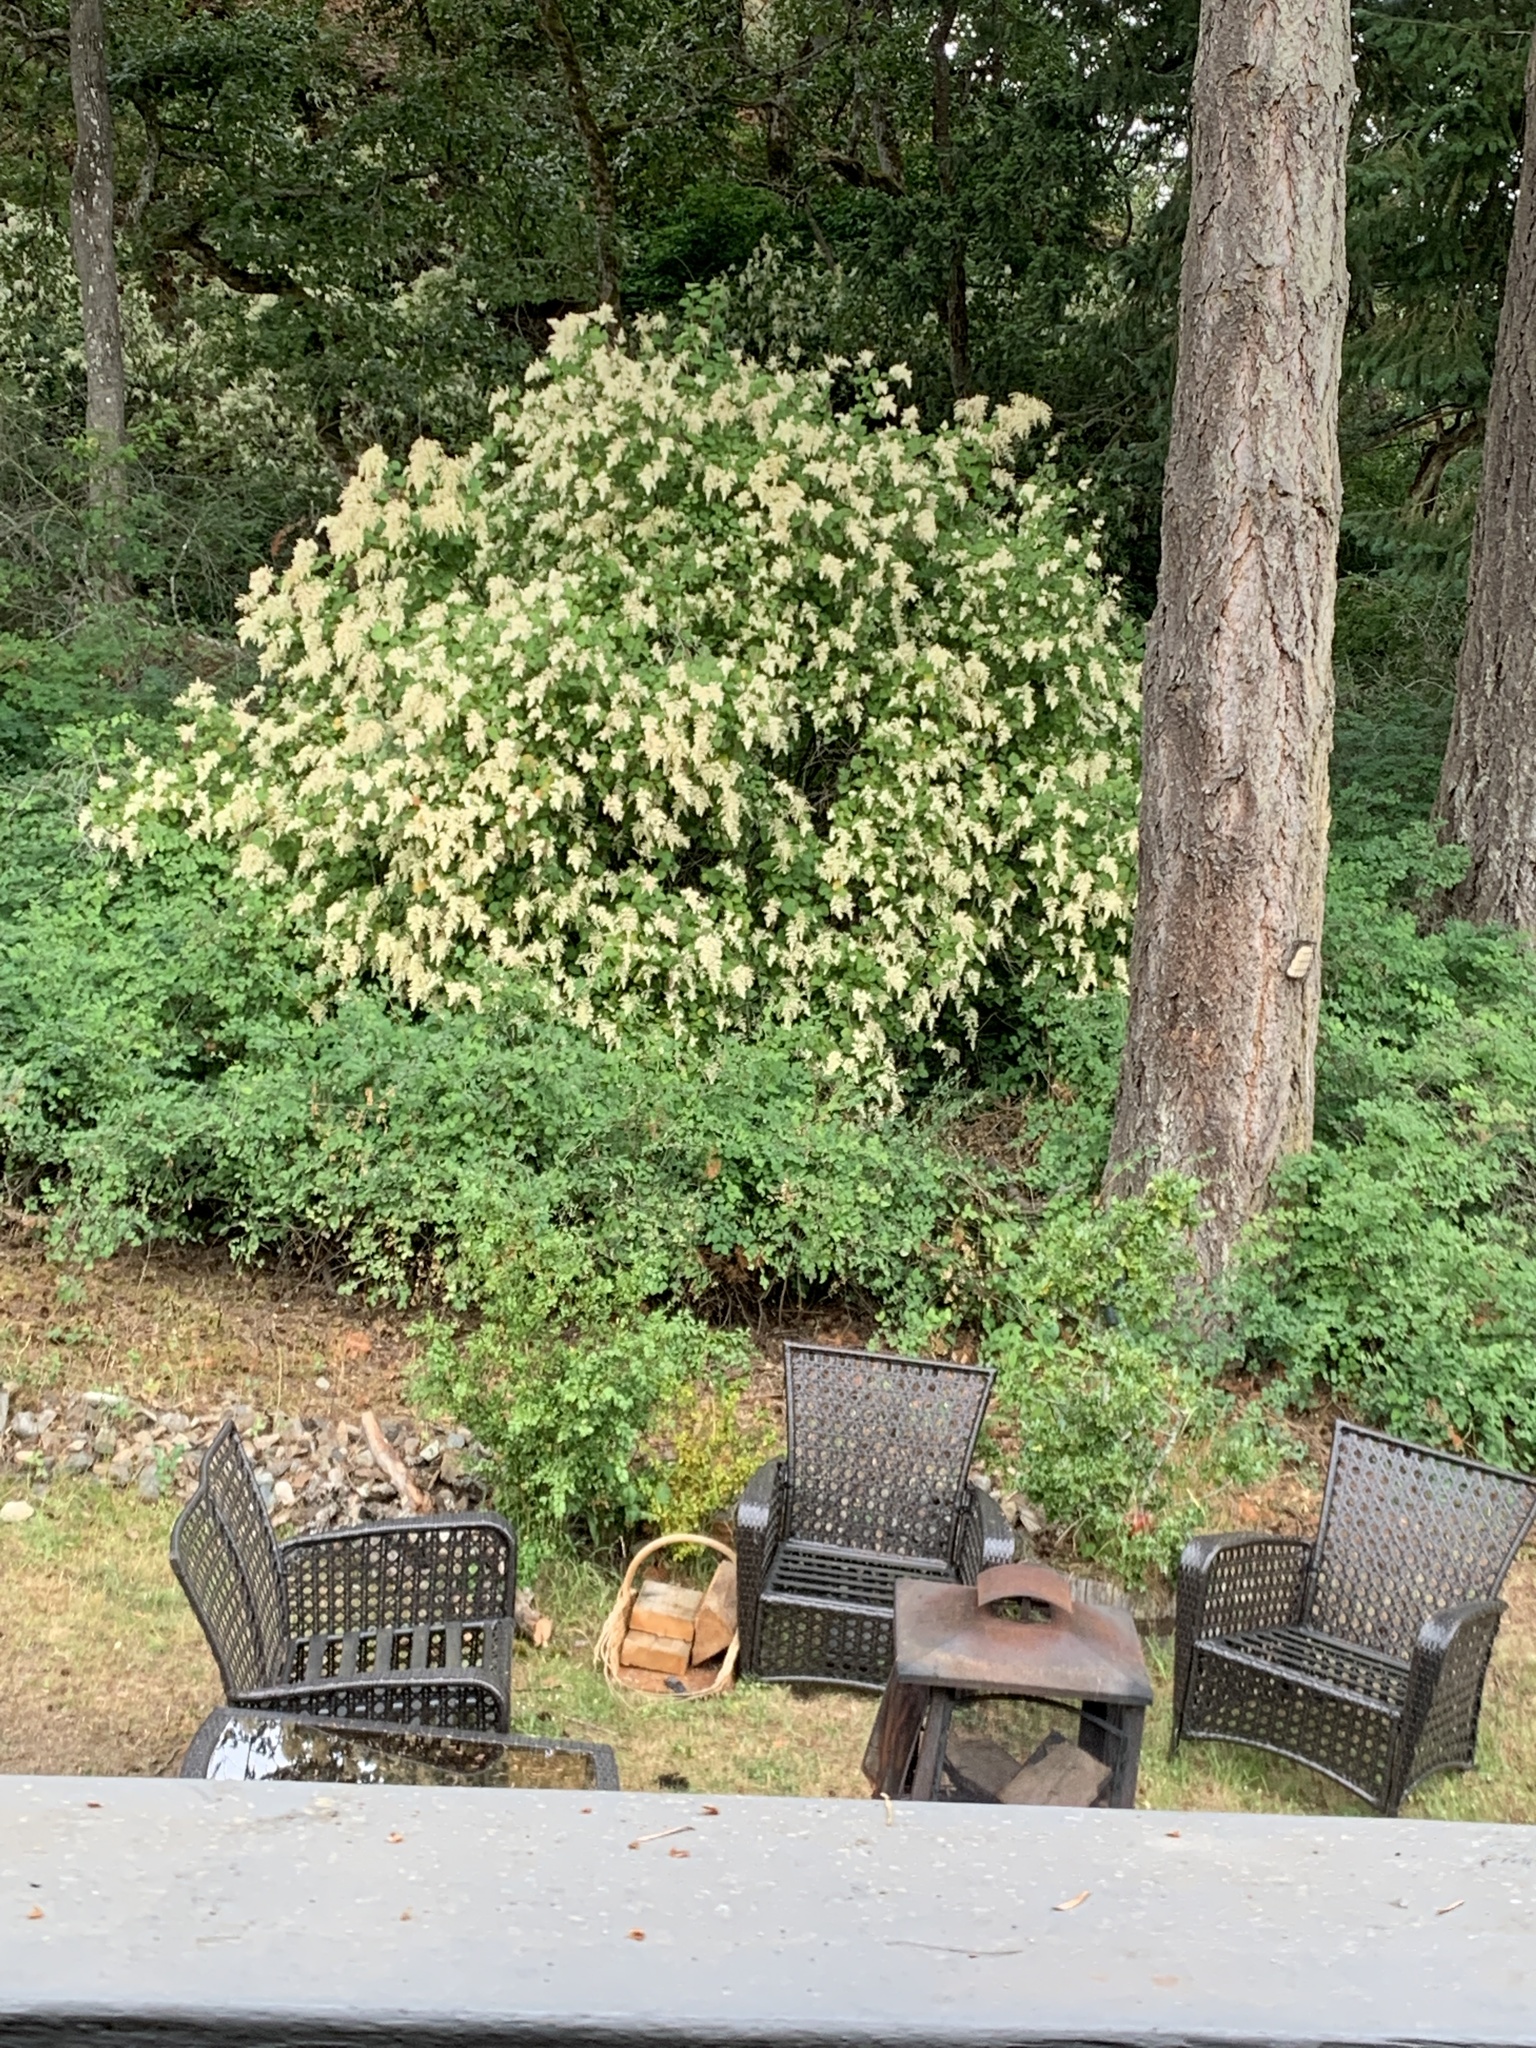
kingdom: Plantae
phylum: Tracheophyta
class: Magnoliopsida
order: Rosales
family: Rosaceae
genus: Holodiscus
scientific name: Holodiscus discolor
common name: Oceanspray
